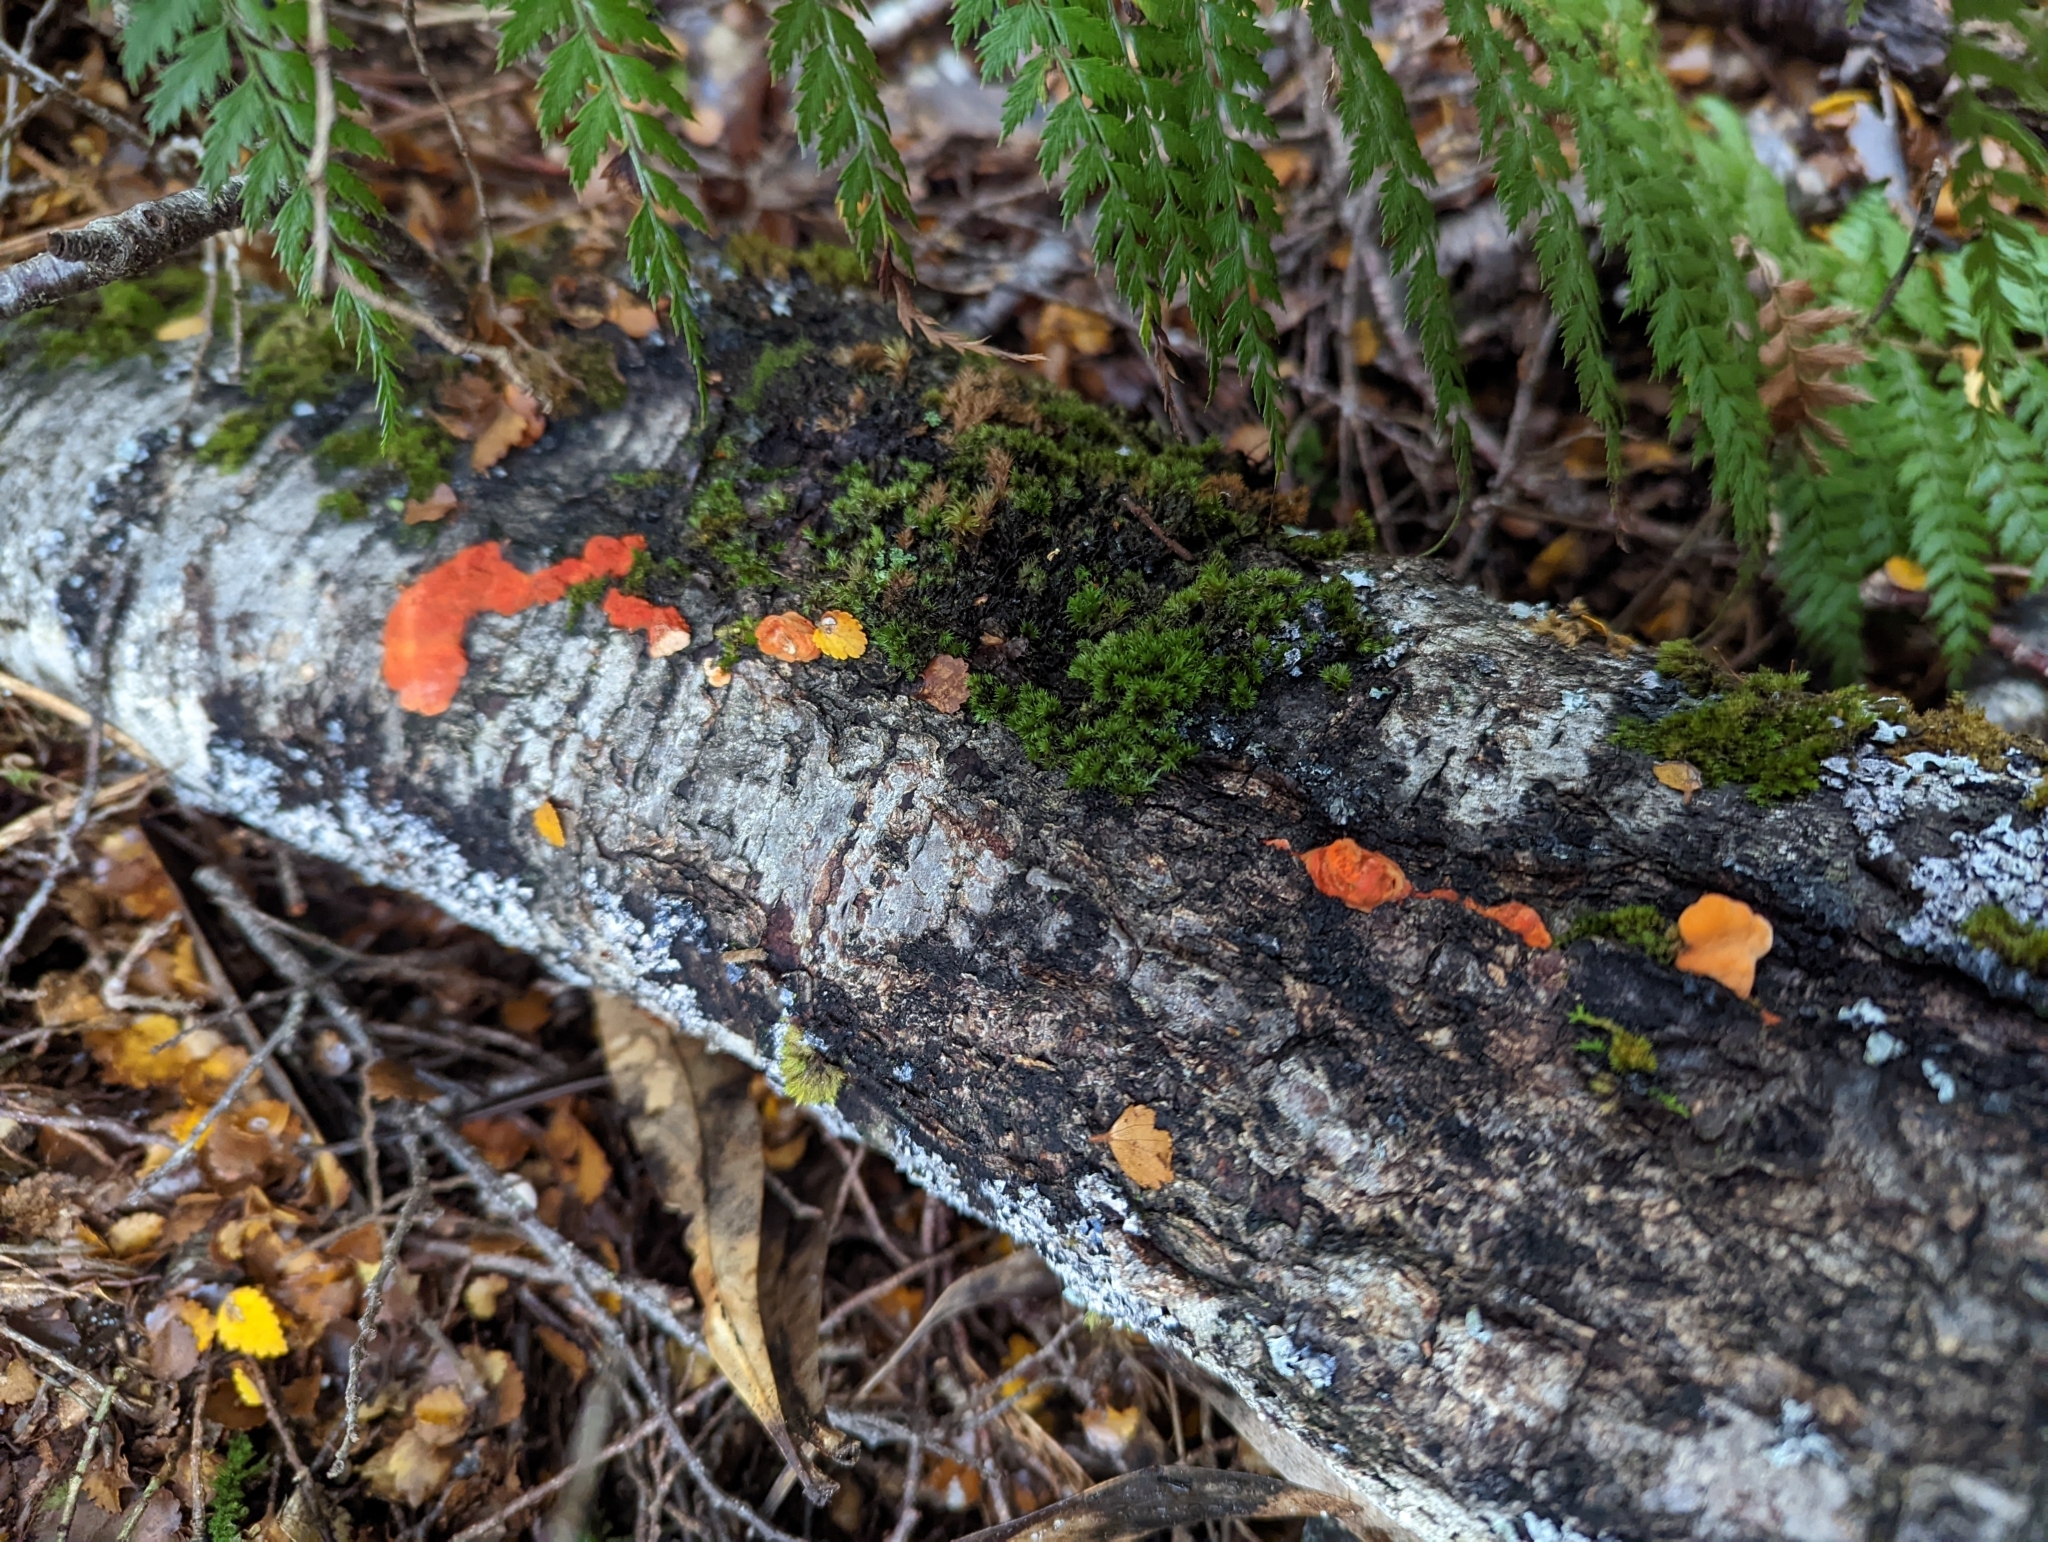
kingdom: Fungi
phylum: Basidiomycota
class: Agaricomycetes
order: Polyporales
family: Polyporaceae
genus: Trametes
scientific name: Trametes coccinea
